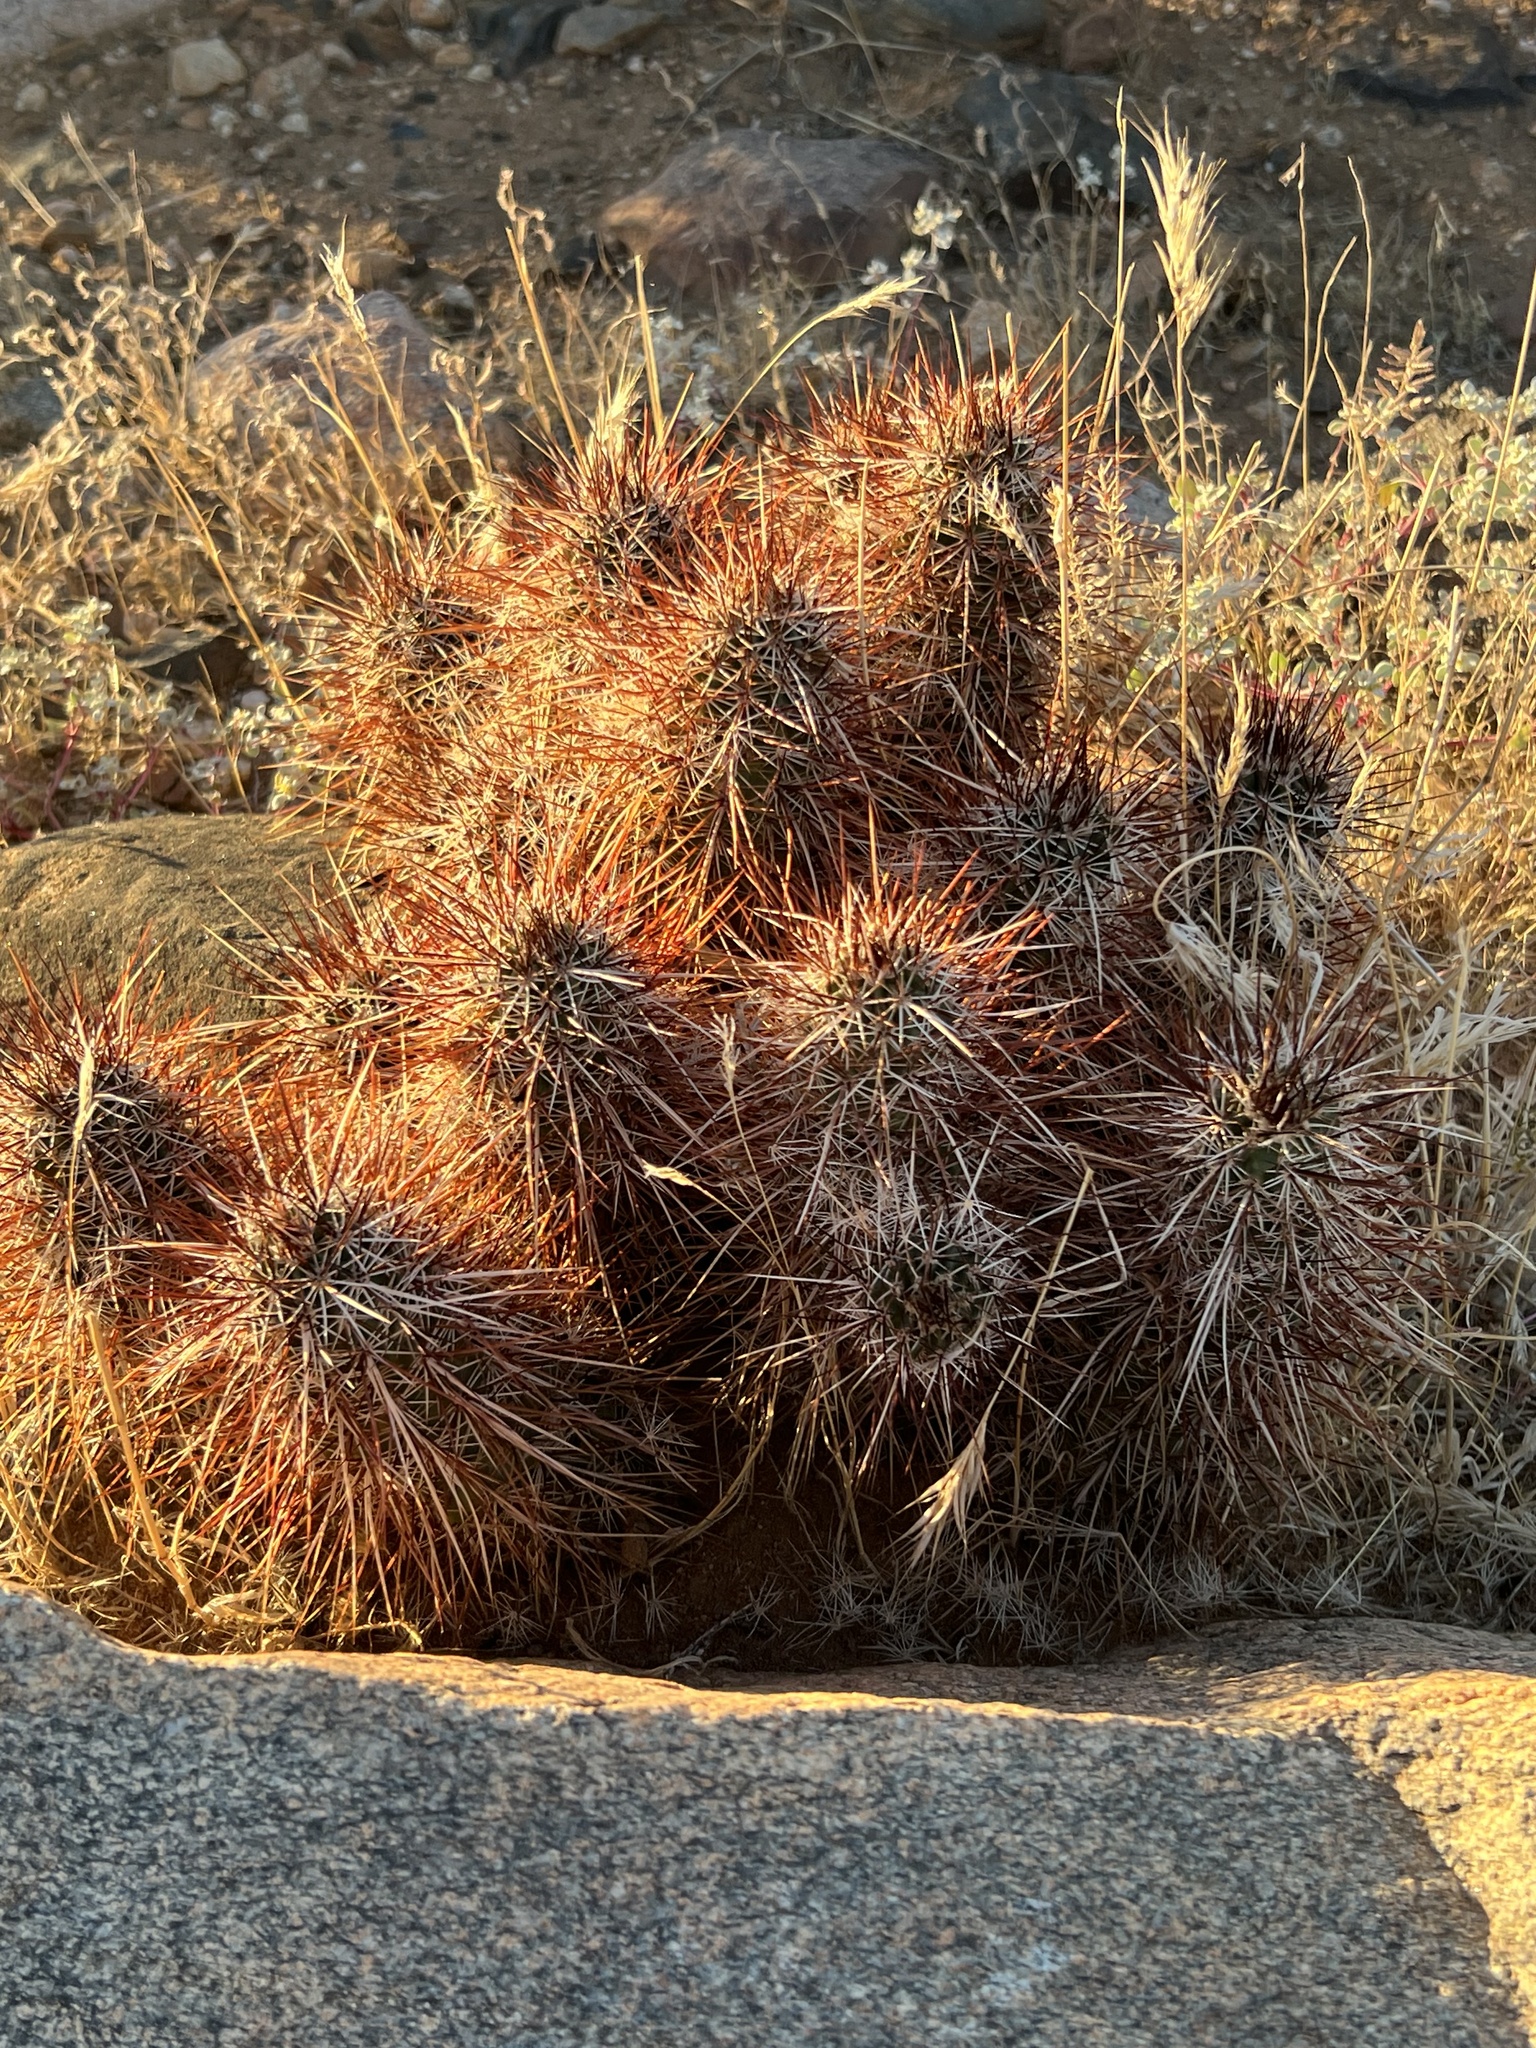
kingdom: Plantae
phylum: Tracheophyta
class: Magnoliopsida
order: Caryophyllales
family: Cactaceae
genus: Echinocereus
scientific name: Echinocereus engelmannii
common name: Engelmann's hedgehog cactus
